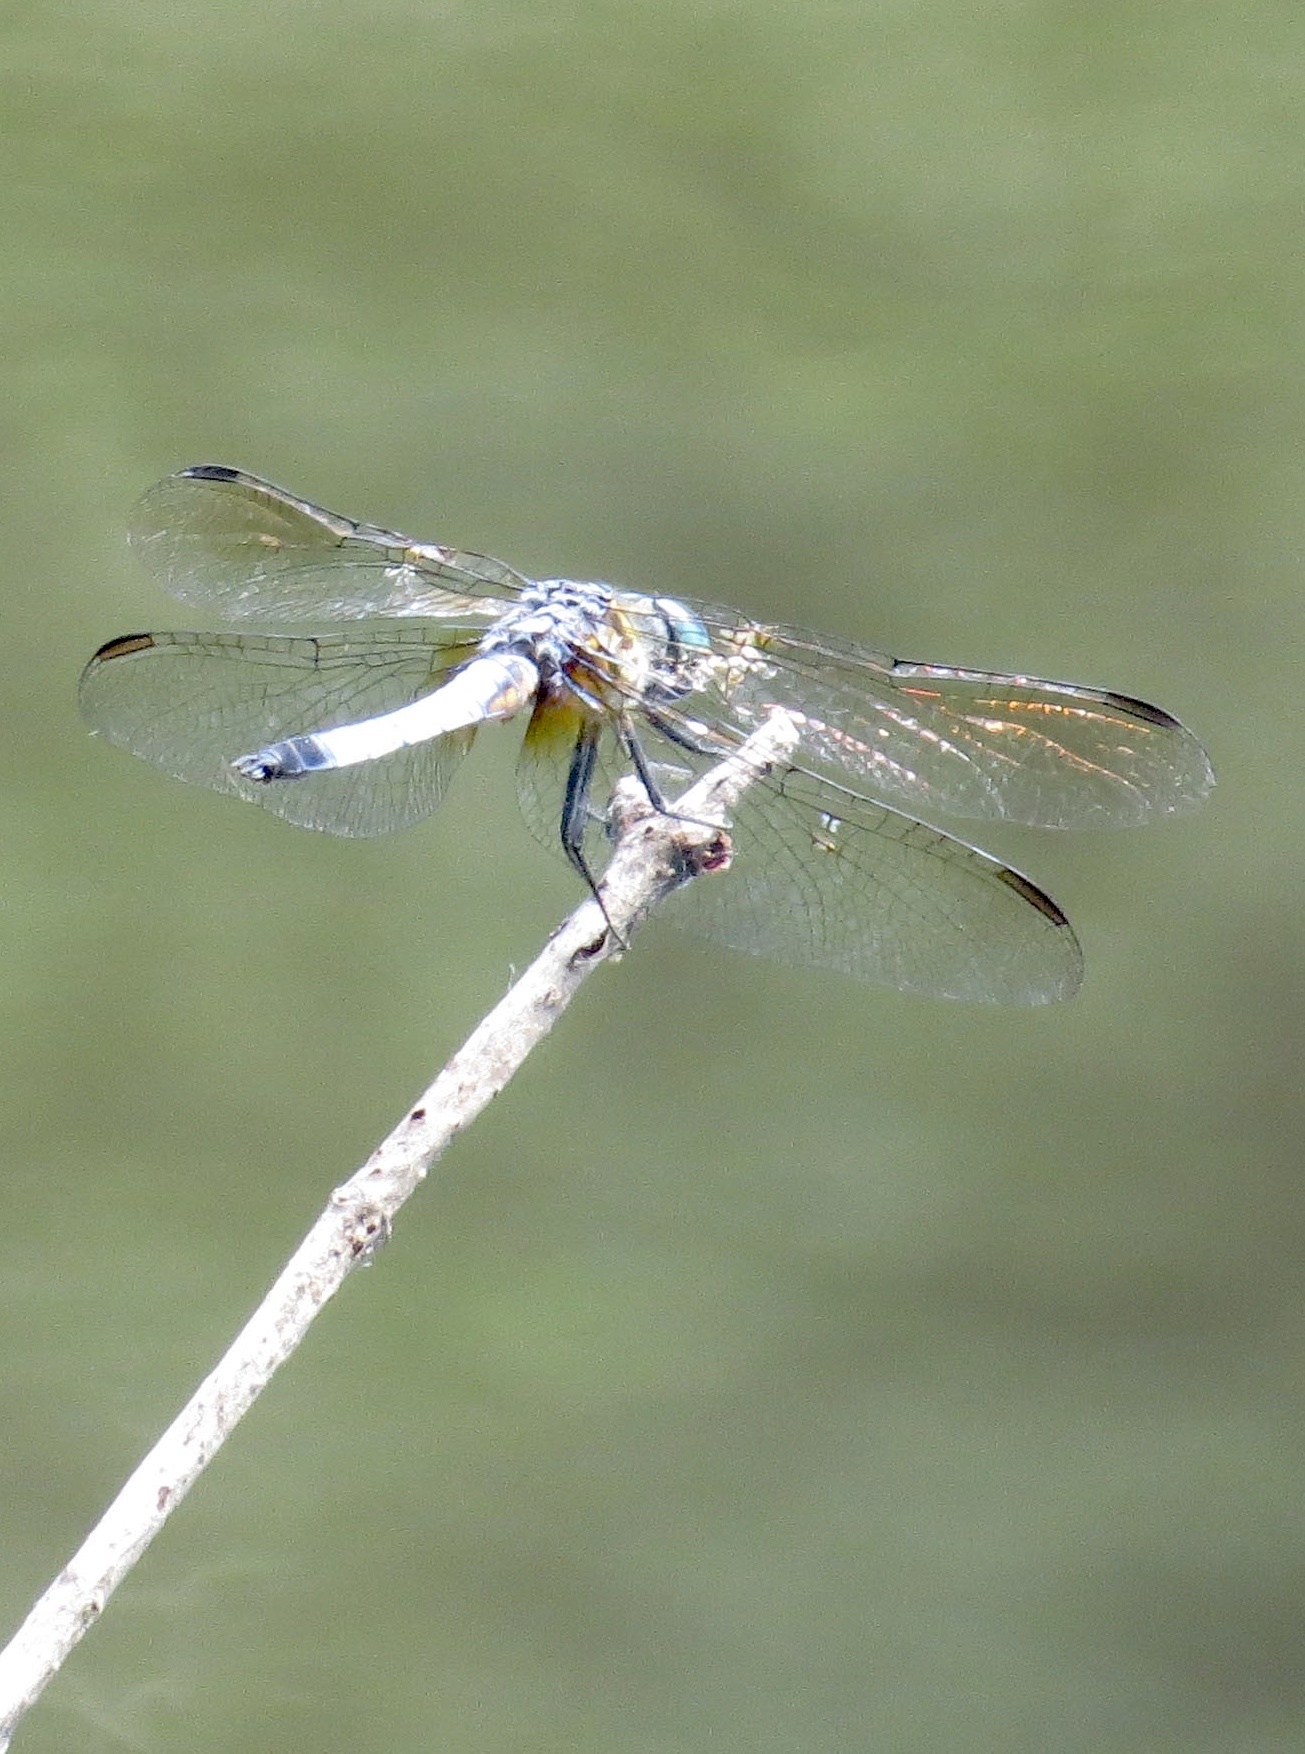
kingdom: Animalia
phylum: Arthropoda
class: Insecta
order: Odonata
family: Libellulidae
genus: Pachydiplax
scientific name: Pachydiplax longipennis
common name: Blue dasher
